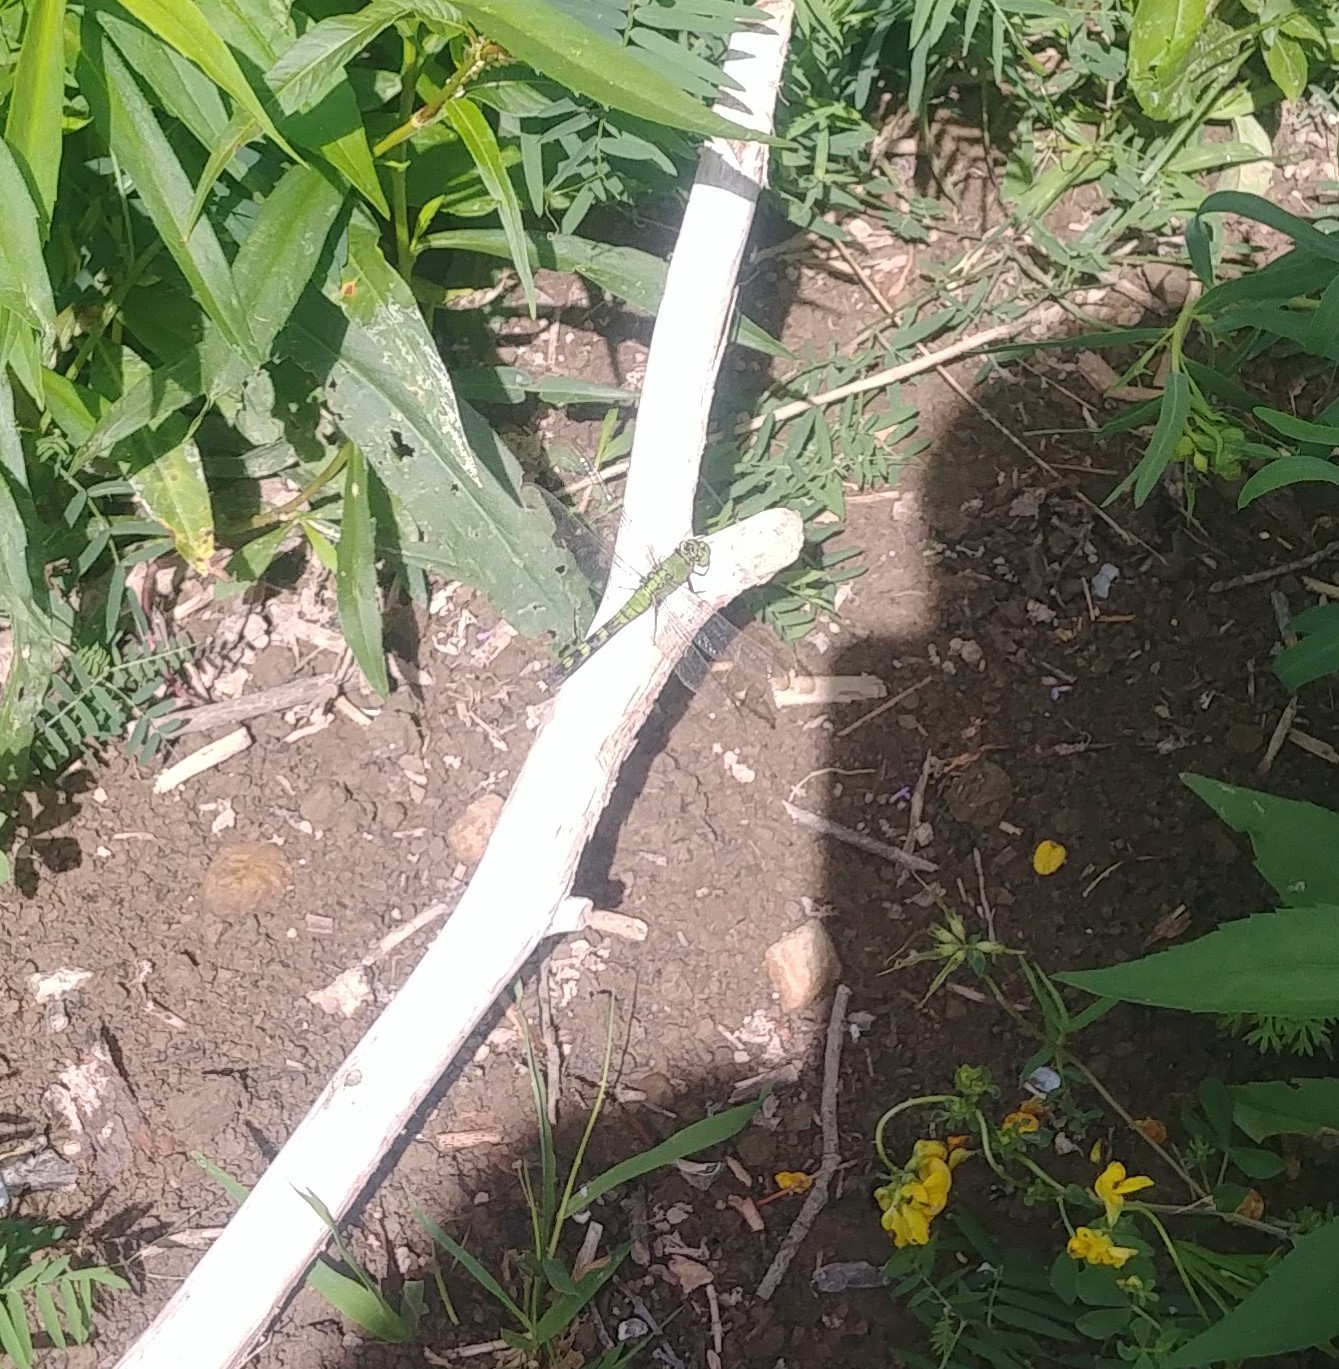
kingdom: Animalia
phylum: Arthropoda
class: Insecta
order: Odonata
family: Libellulidae
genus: Erythemis
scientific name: Erythemis simplicicollis
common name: Eastern pondhawk
